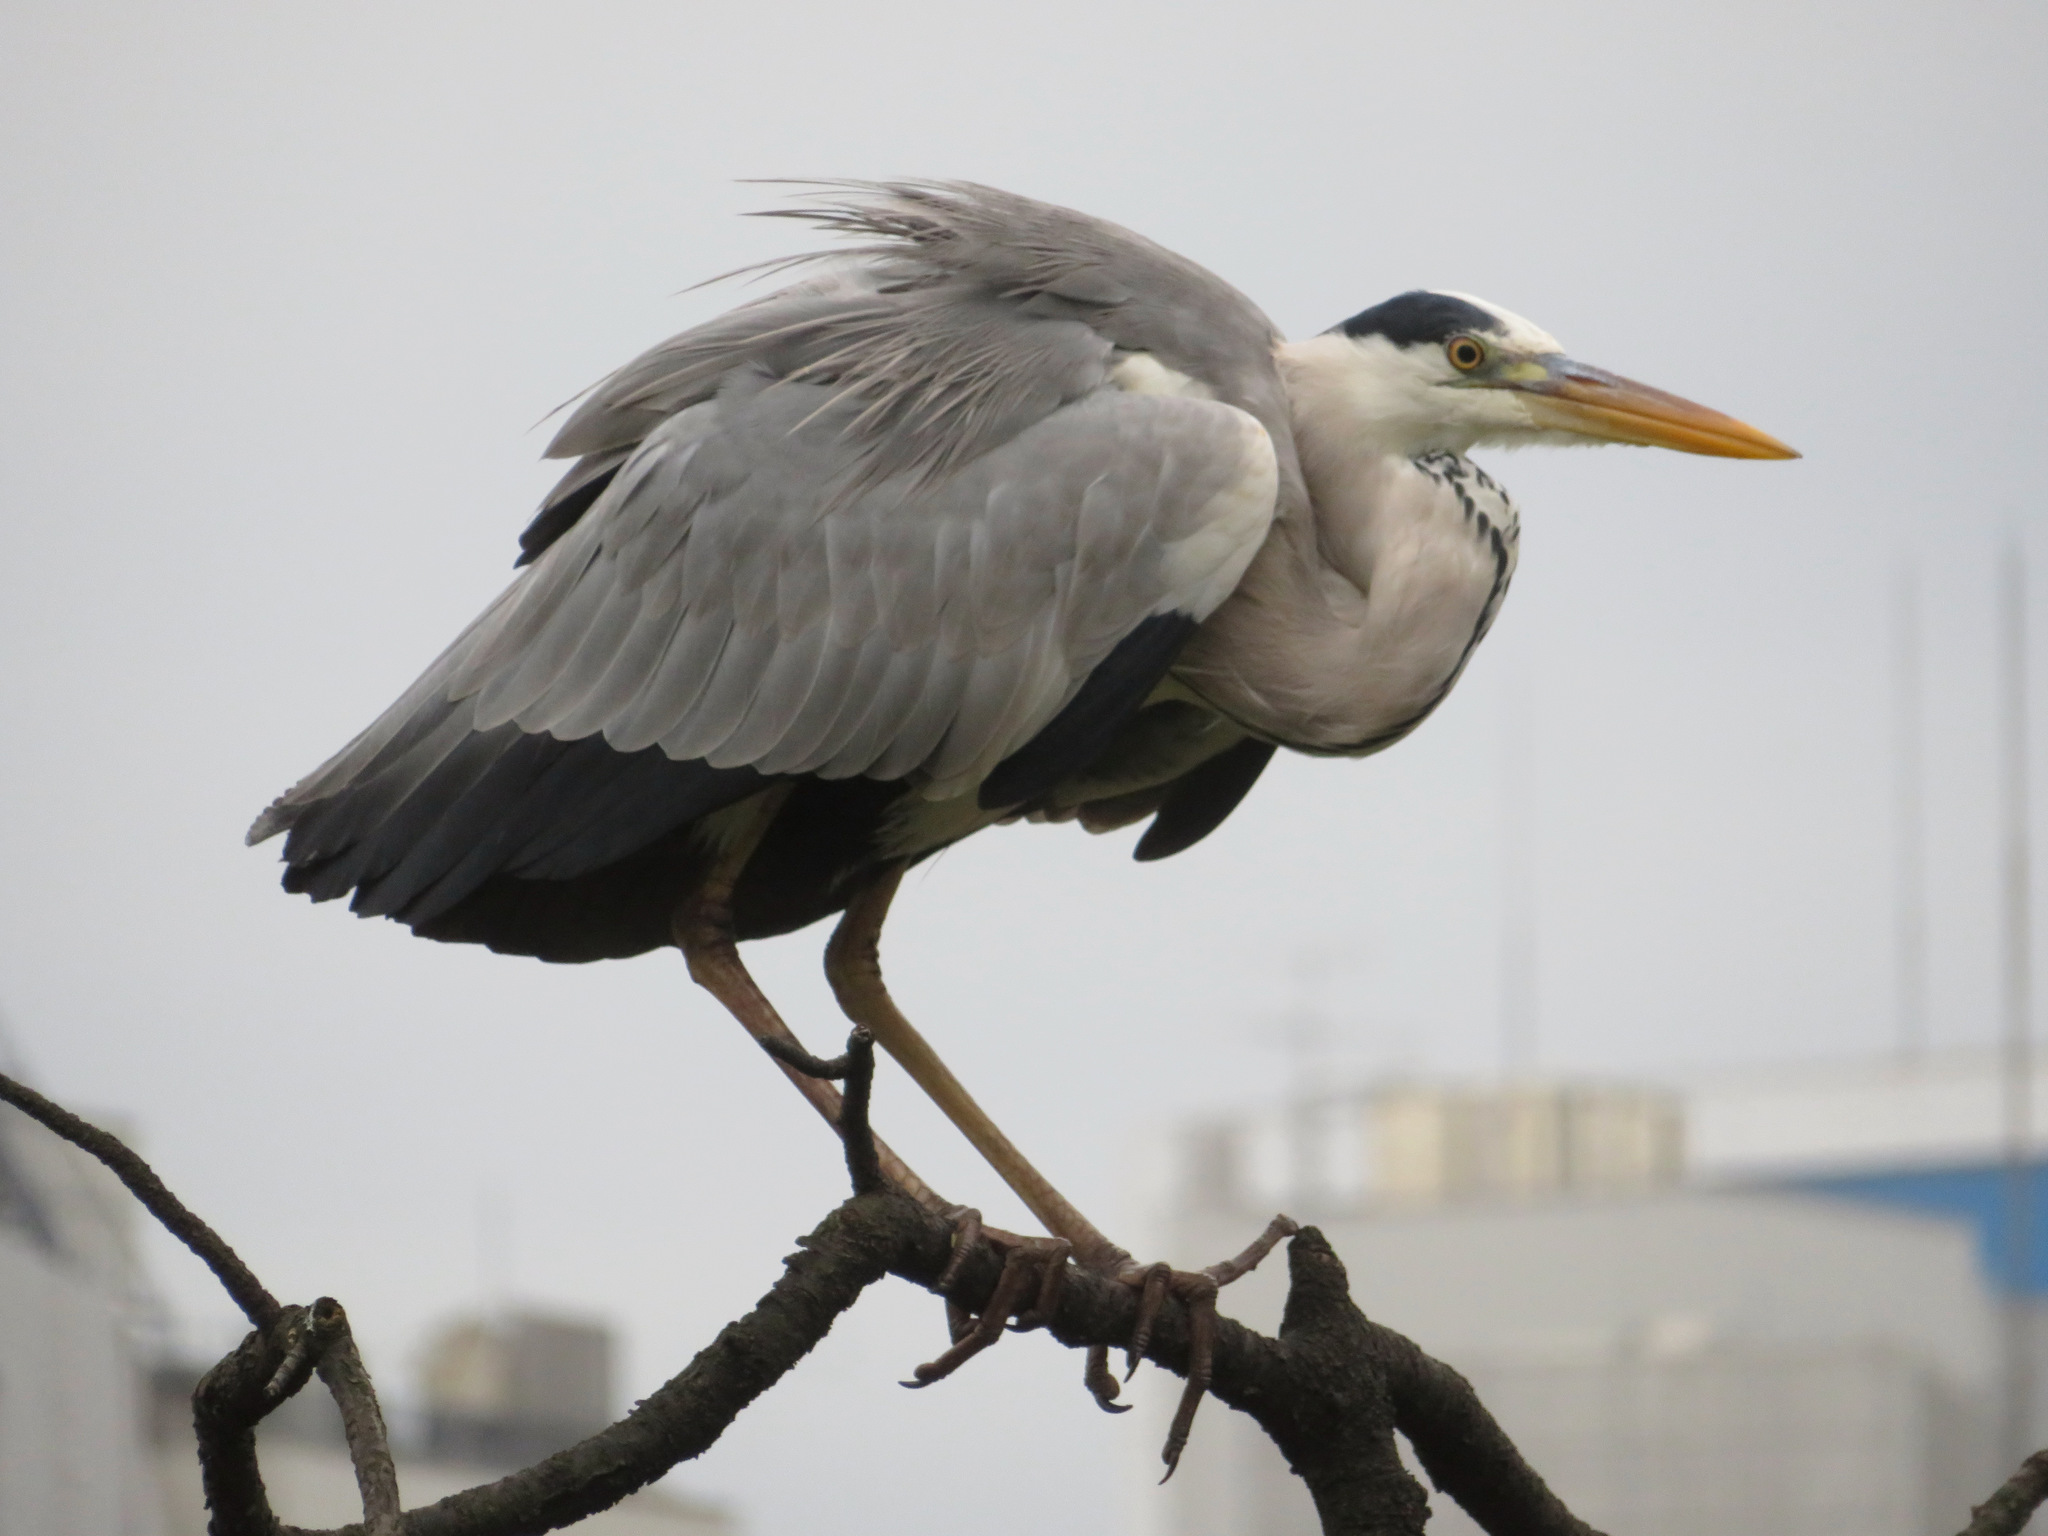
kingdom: Animalia
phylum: Chordata
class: Aves
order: Pelecaniformes
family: Ardeidae
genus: Ardea
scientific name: Ardea cinerea
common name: Grey heron
